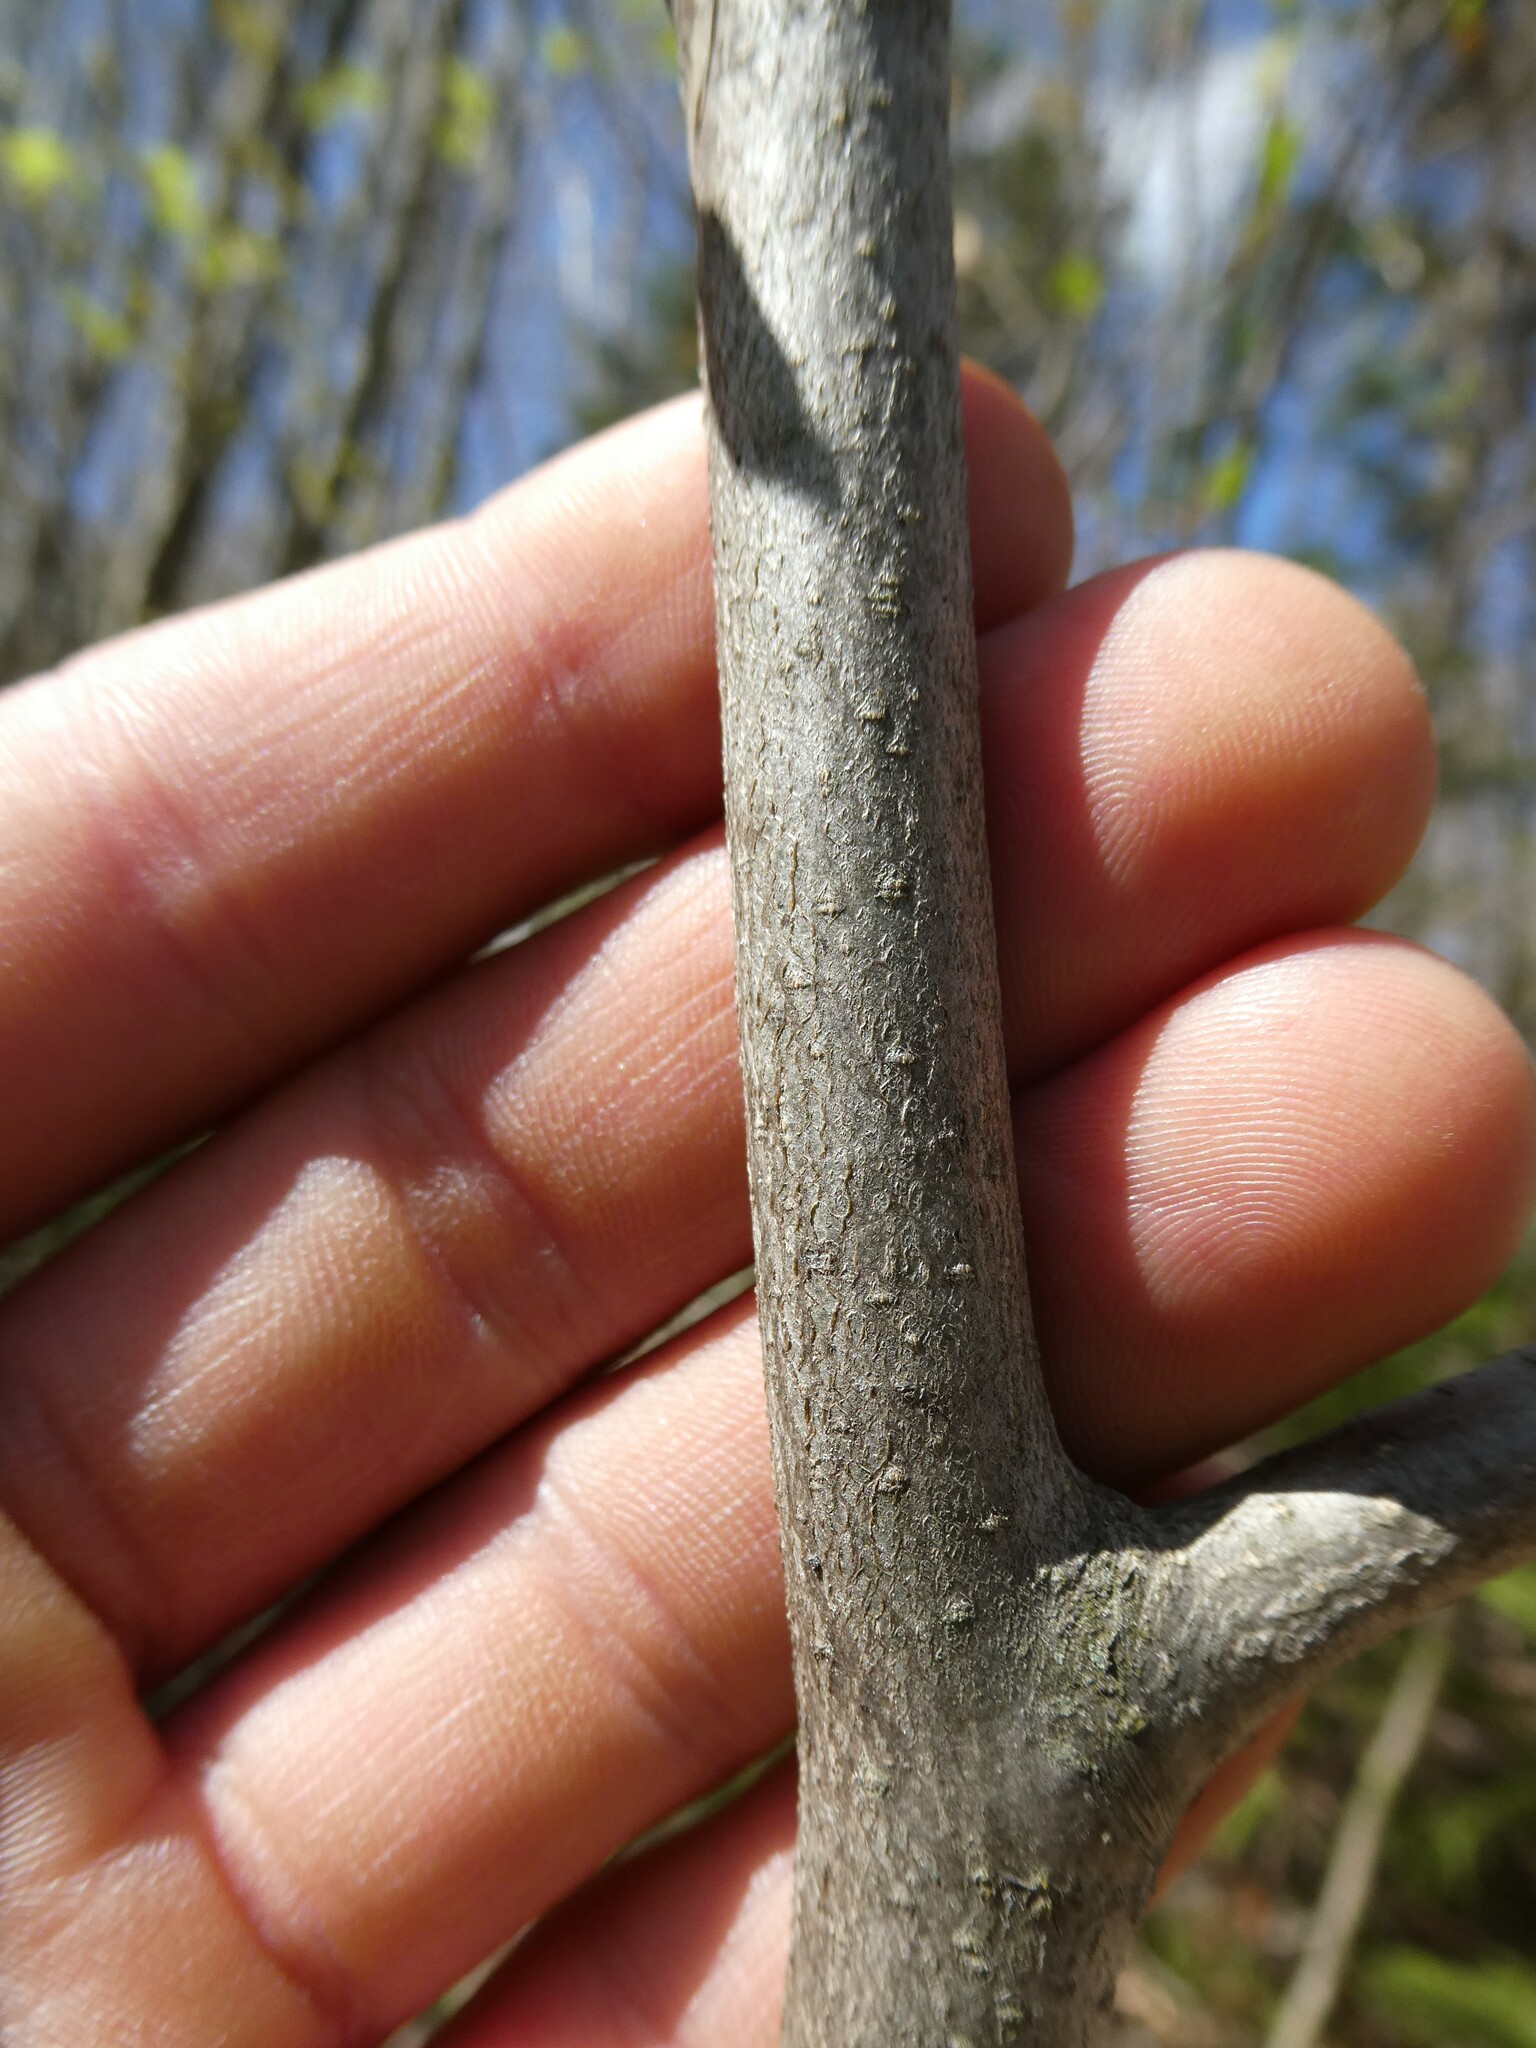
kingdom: Plantae
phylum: Tracheophyta
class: Magnoliopsida
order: Fagales
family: Fagaceae
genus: Fagus
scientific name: Fagus grandifolia
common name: American beech
